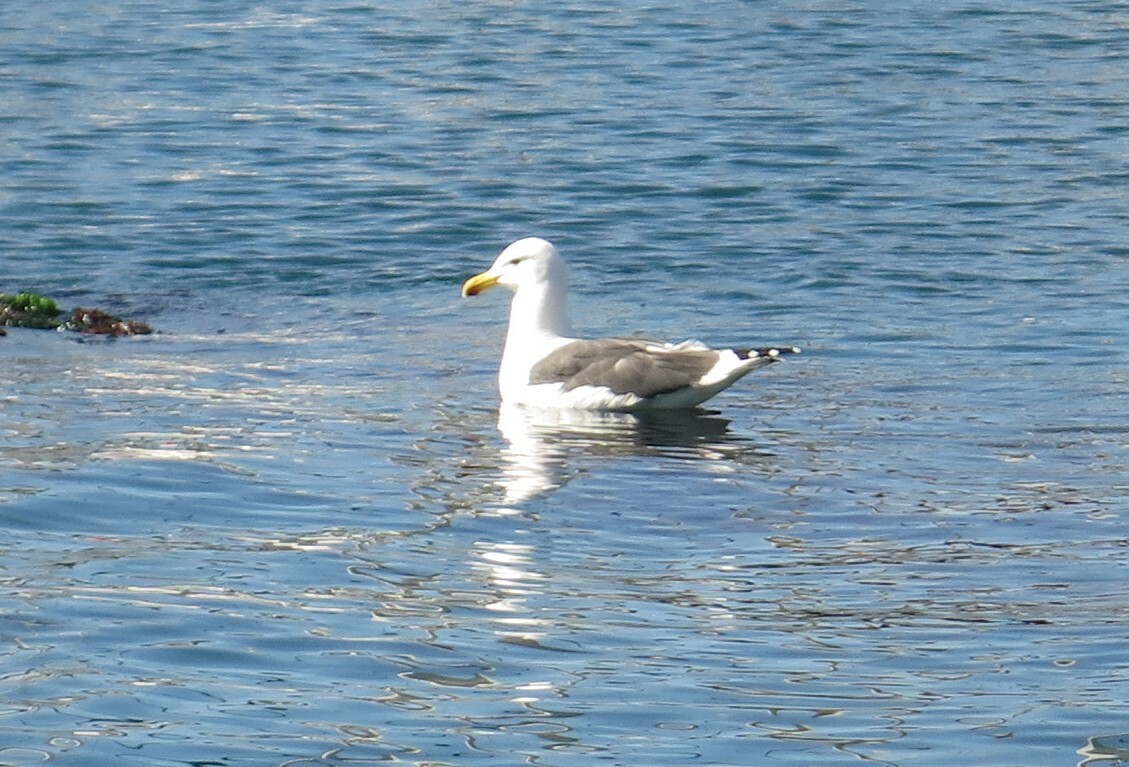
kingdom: Animalia
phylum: Chordata
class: Aves
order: Charadriiformes
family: Laridae
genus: Larus
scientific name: Larus dominicanus
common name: Kelp gull
